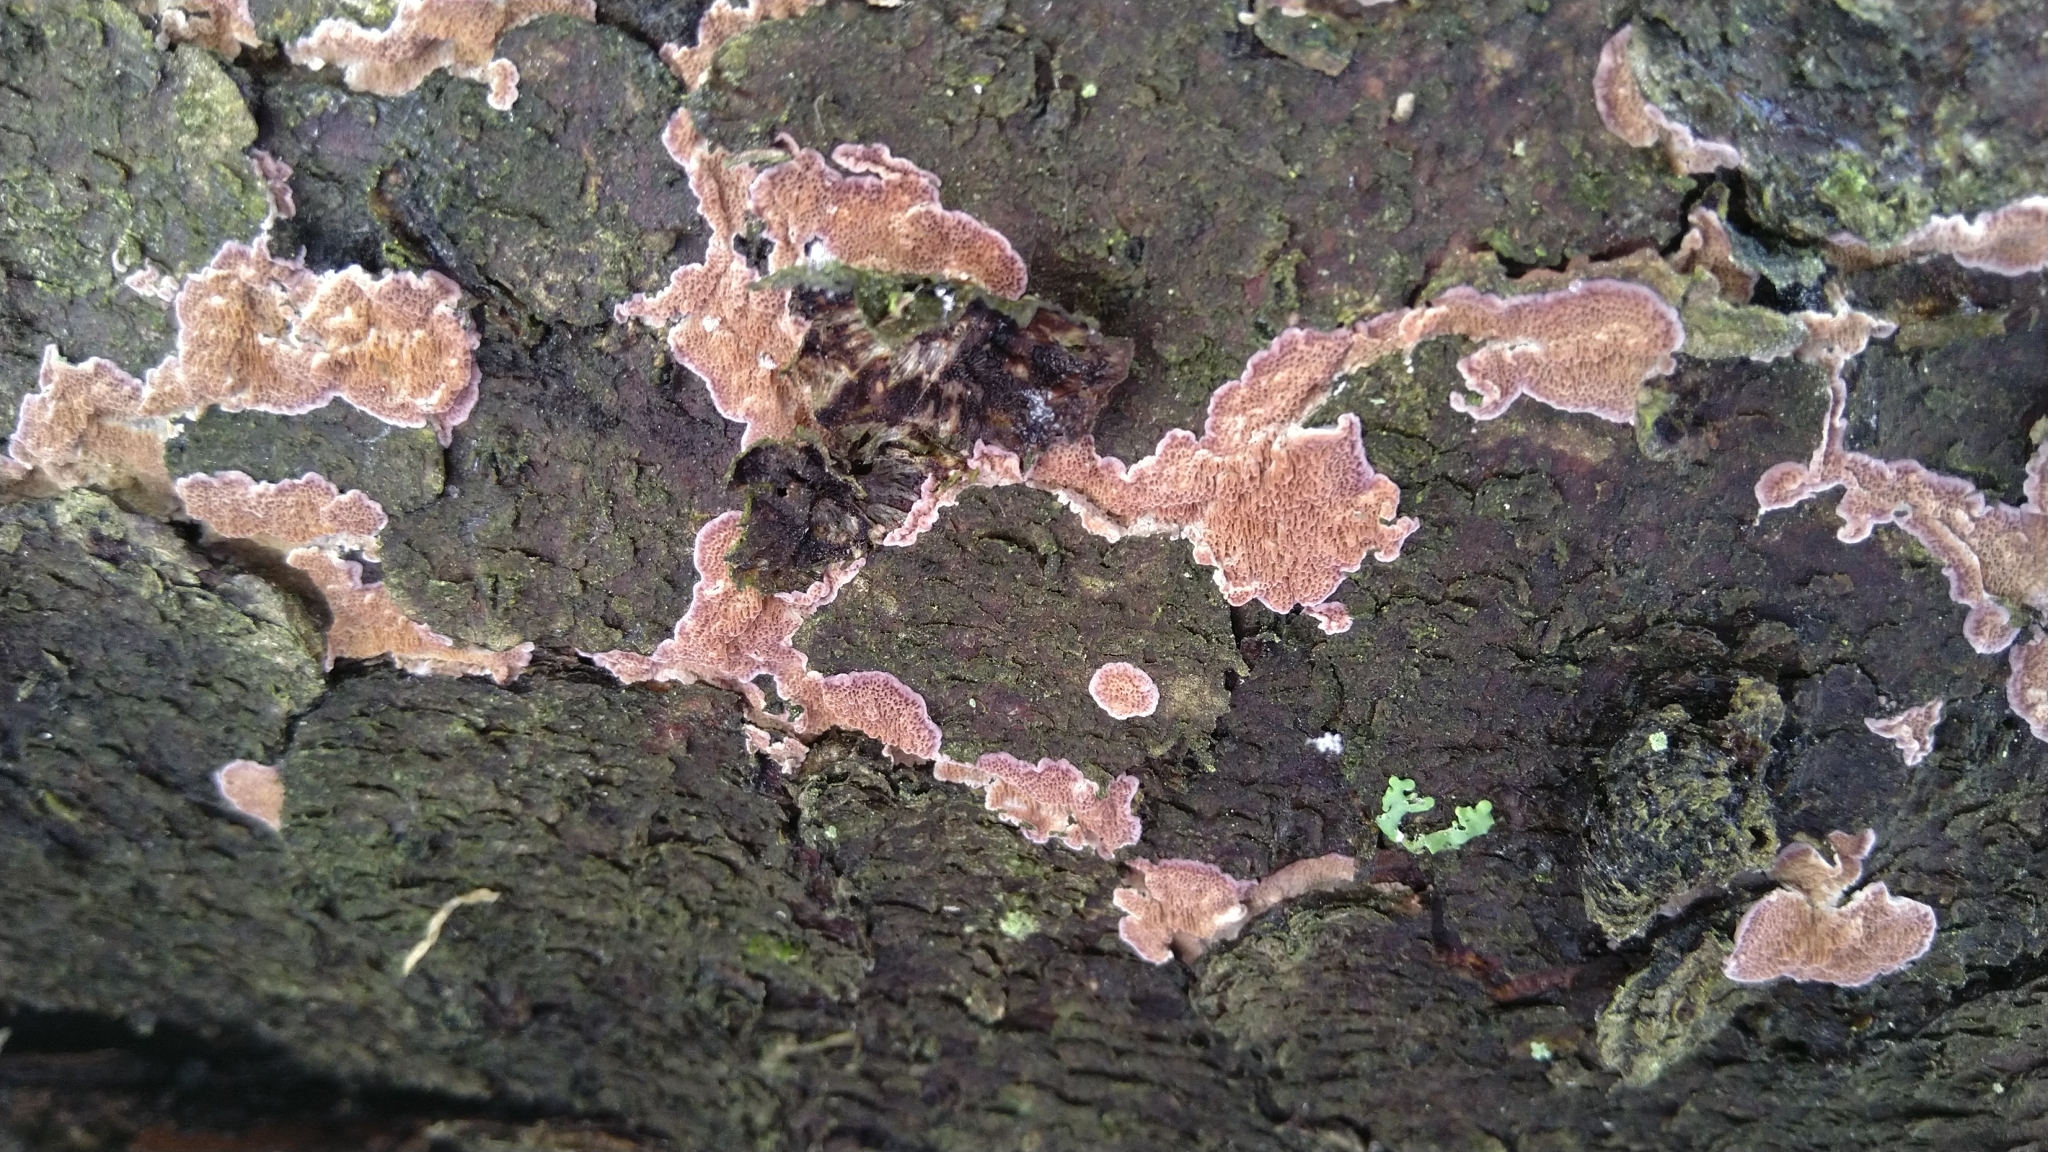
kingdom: Fungi
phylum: Basidiomycota
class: Agaricomycetes
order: Hymenochaetales
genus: Trichaptum
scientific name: Trichaptum abietinum
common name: Purplepore bracket
